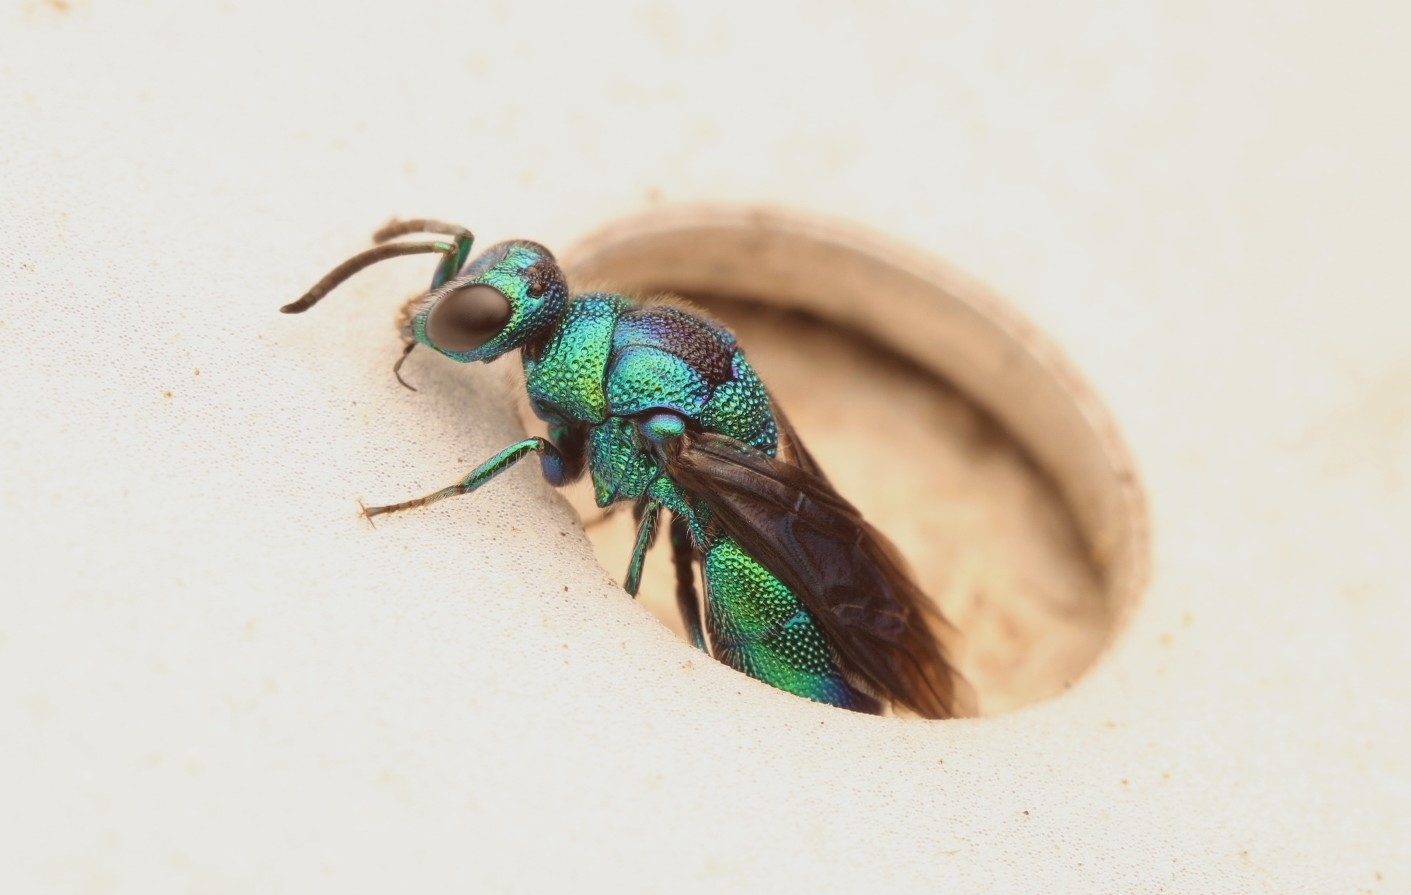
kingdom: Animalia
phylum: Arthropoda
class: Insecta
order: Hymenoptera
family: Chrysididae
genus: Chrysis
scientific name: Chrysis angolensis
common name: Cuckoo wasp
